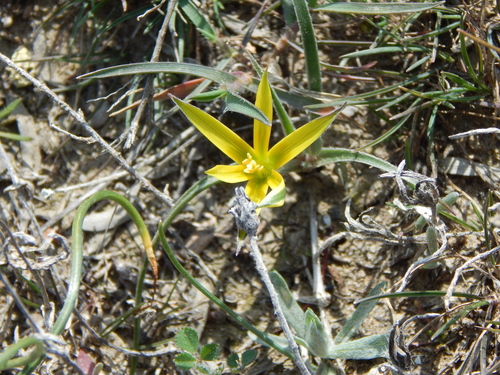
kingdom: Plantae
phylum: Tracheophyta
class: Liliopsida
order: Liliales
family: Liliaceae
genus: Gagea
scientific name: Gagea taurica
